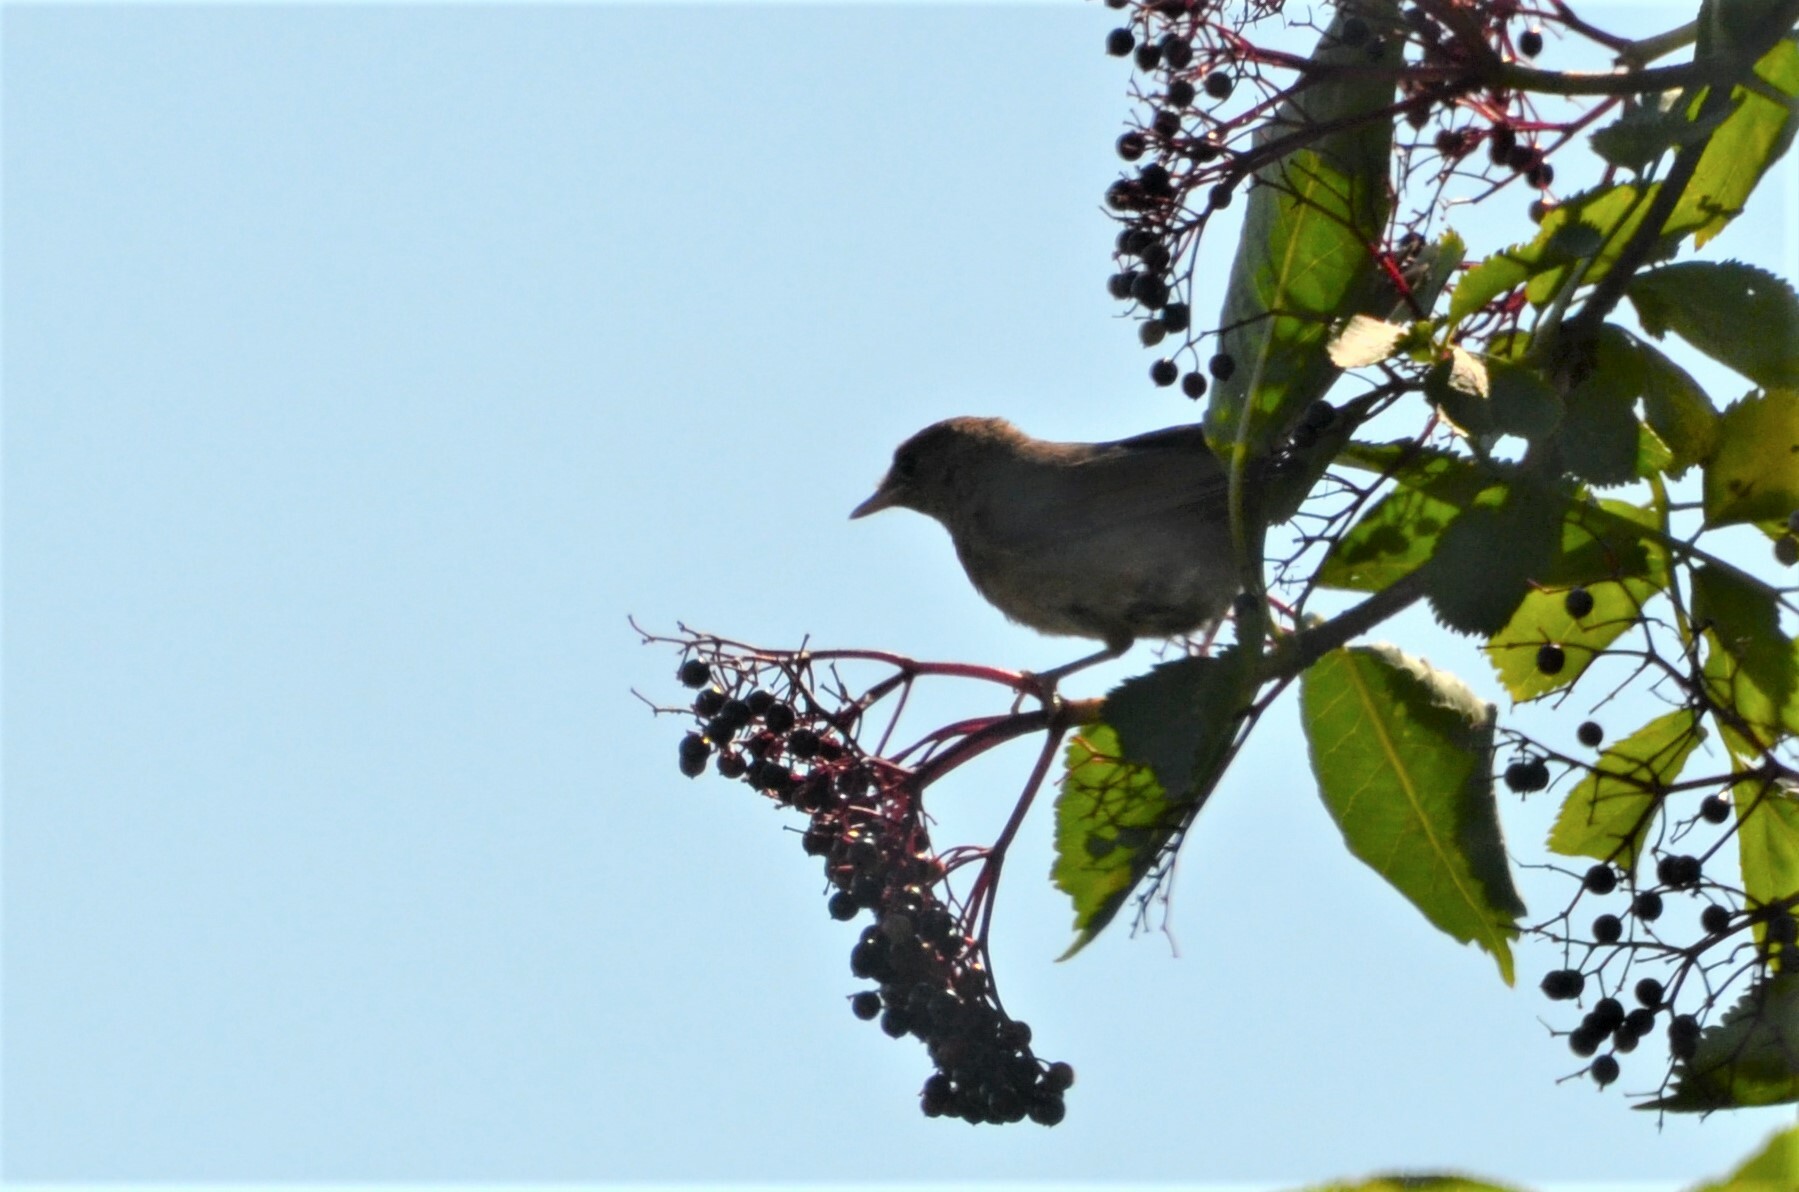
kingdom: Animalia
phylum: Chordata
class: Aves
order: Passeriformes
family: Sylviidae
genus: Sylvia
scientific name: Sylvia atricapilla
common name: Eurasian blackcap
